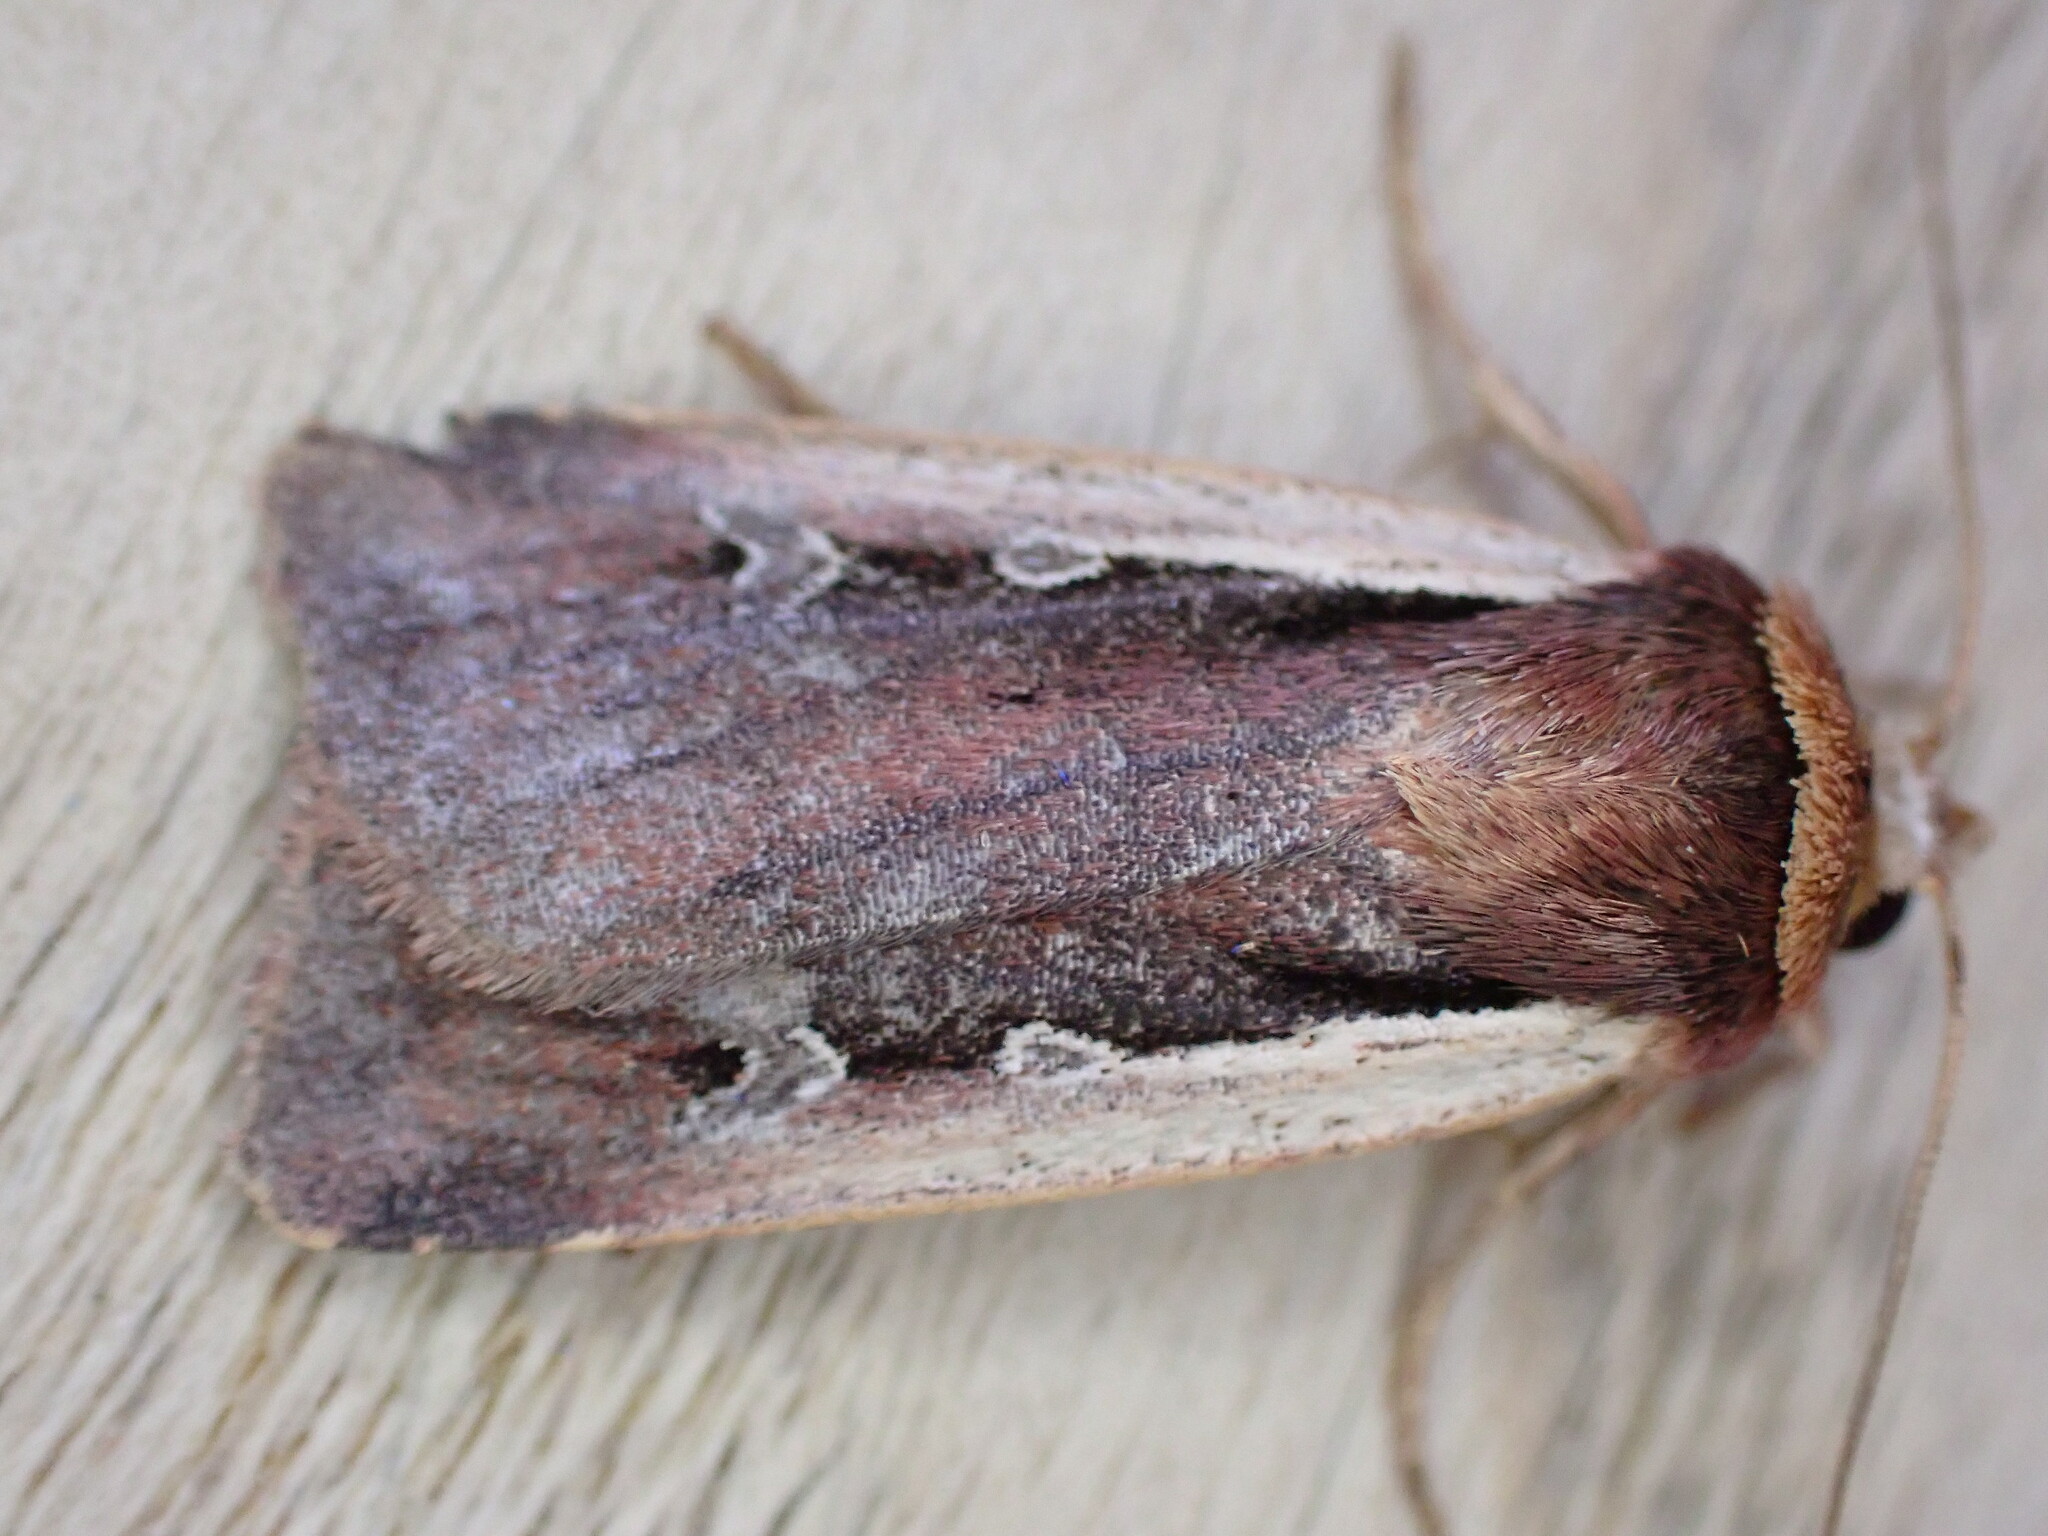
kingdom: Animalia
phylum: Arthropoda
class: Insecta
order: Lepidoptera
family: Noctuidae
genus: Ochropleura
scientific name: Ochropleura plecta
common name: Flame shoulder
